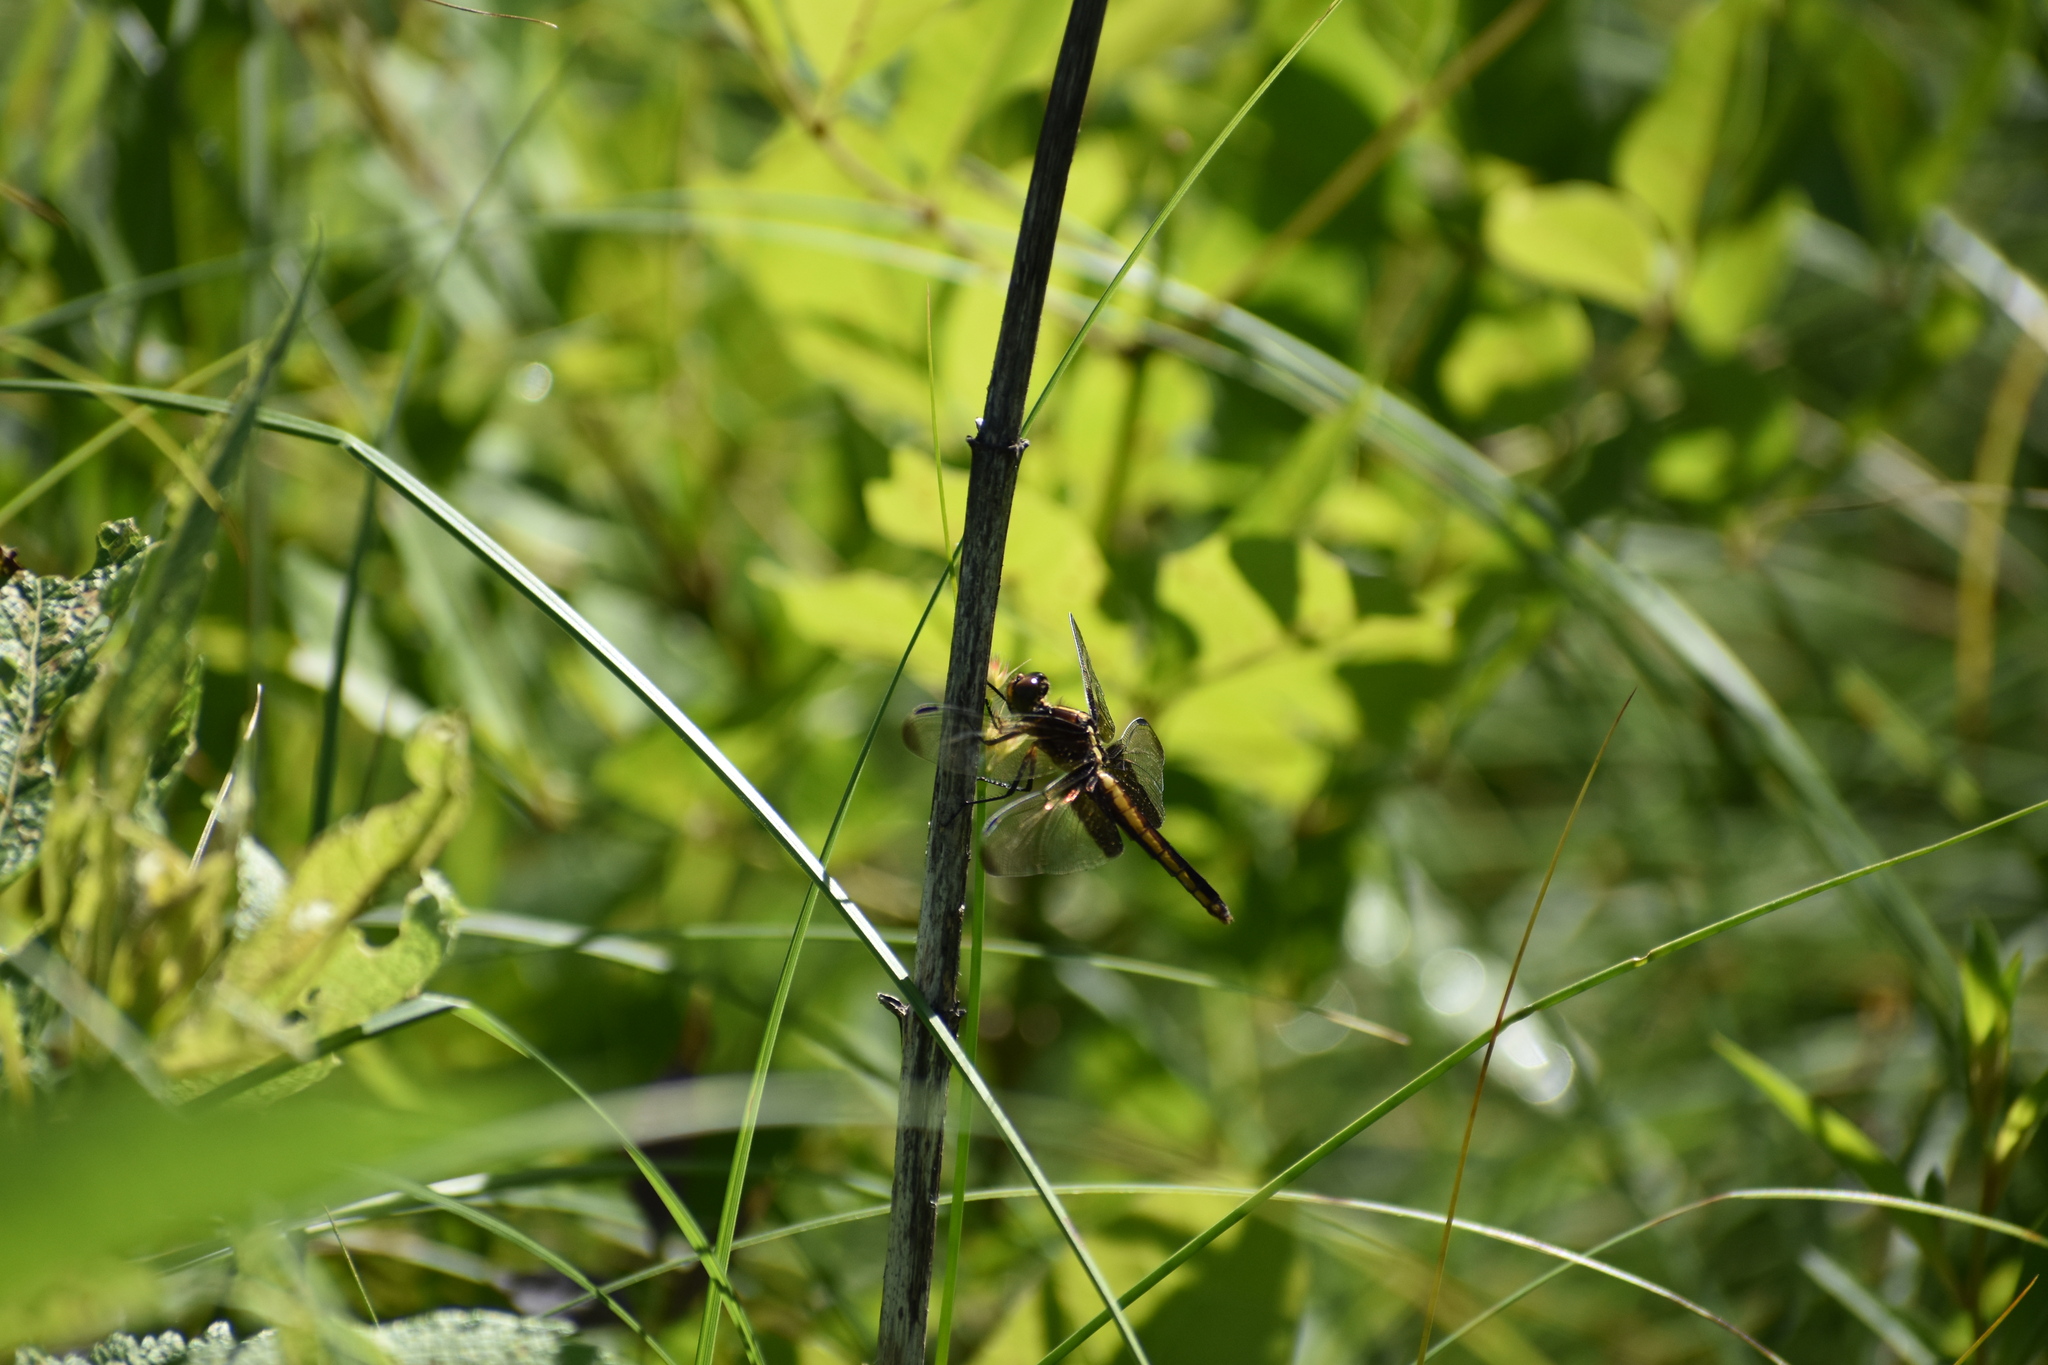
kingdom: Animalia
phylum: Arthropoda
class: Insecta
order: Odonata
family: Libellulidae
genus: Libellula
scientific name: Libellula luctuosa
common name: Widow skimmer
